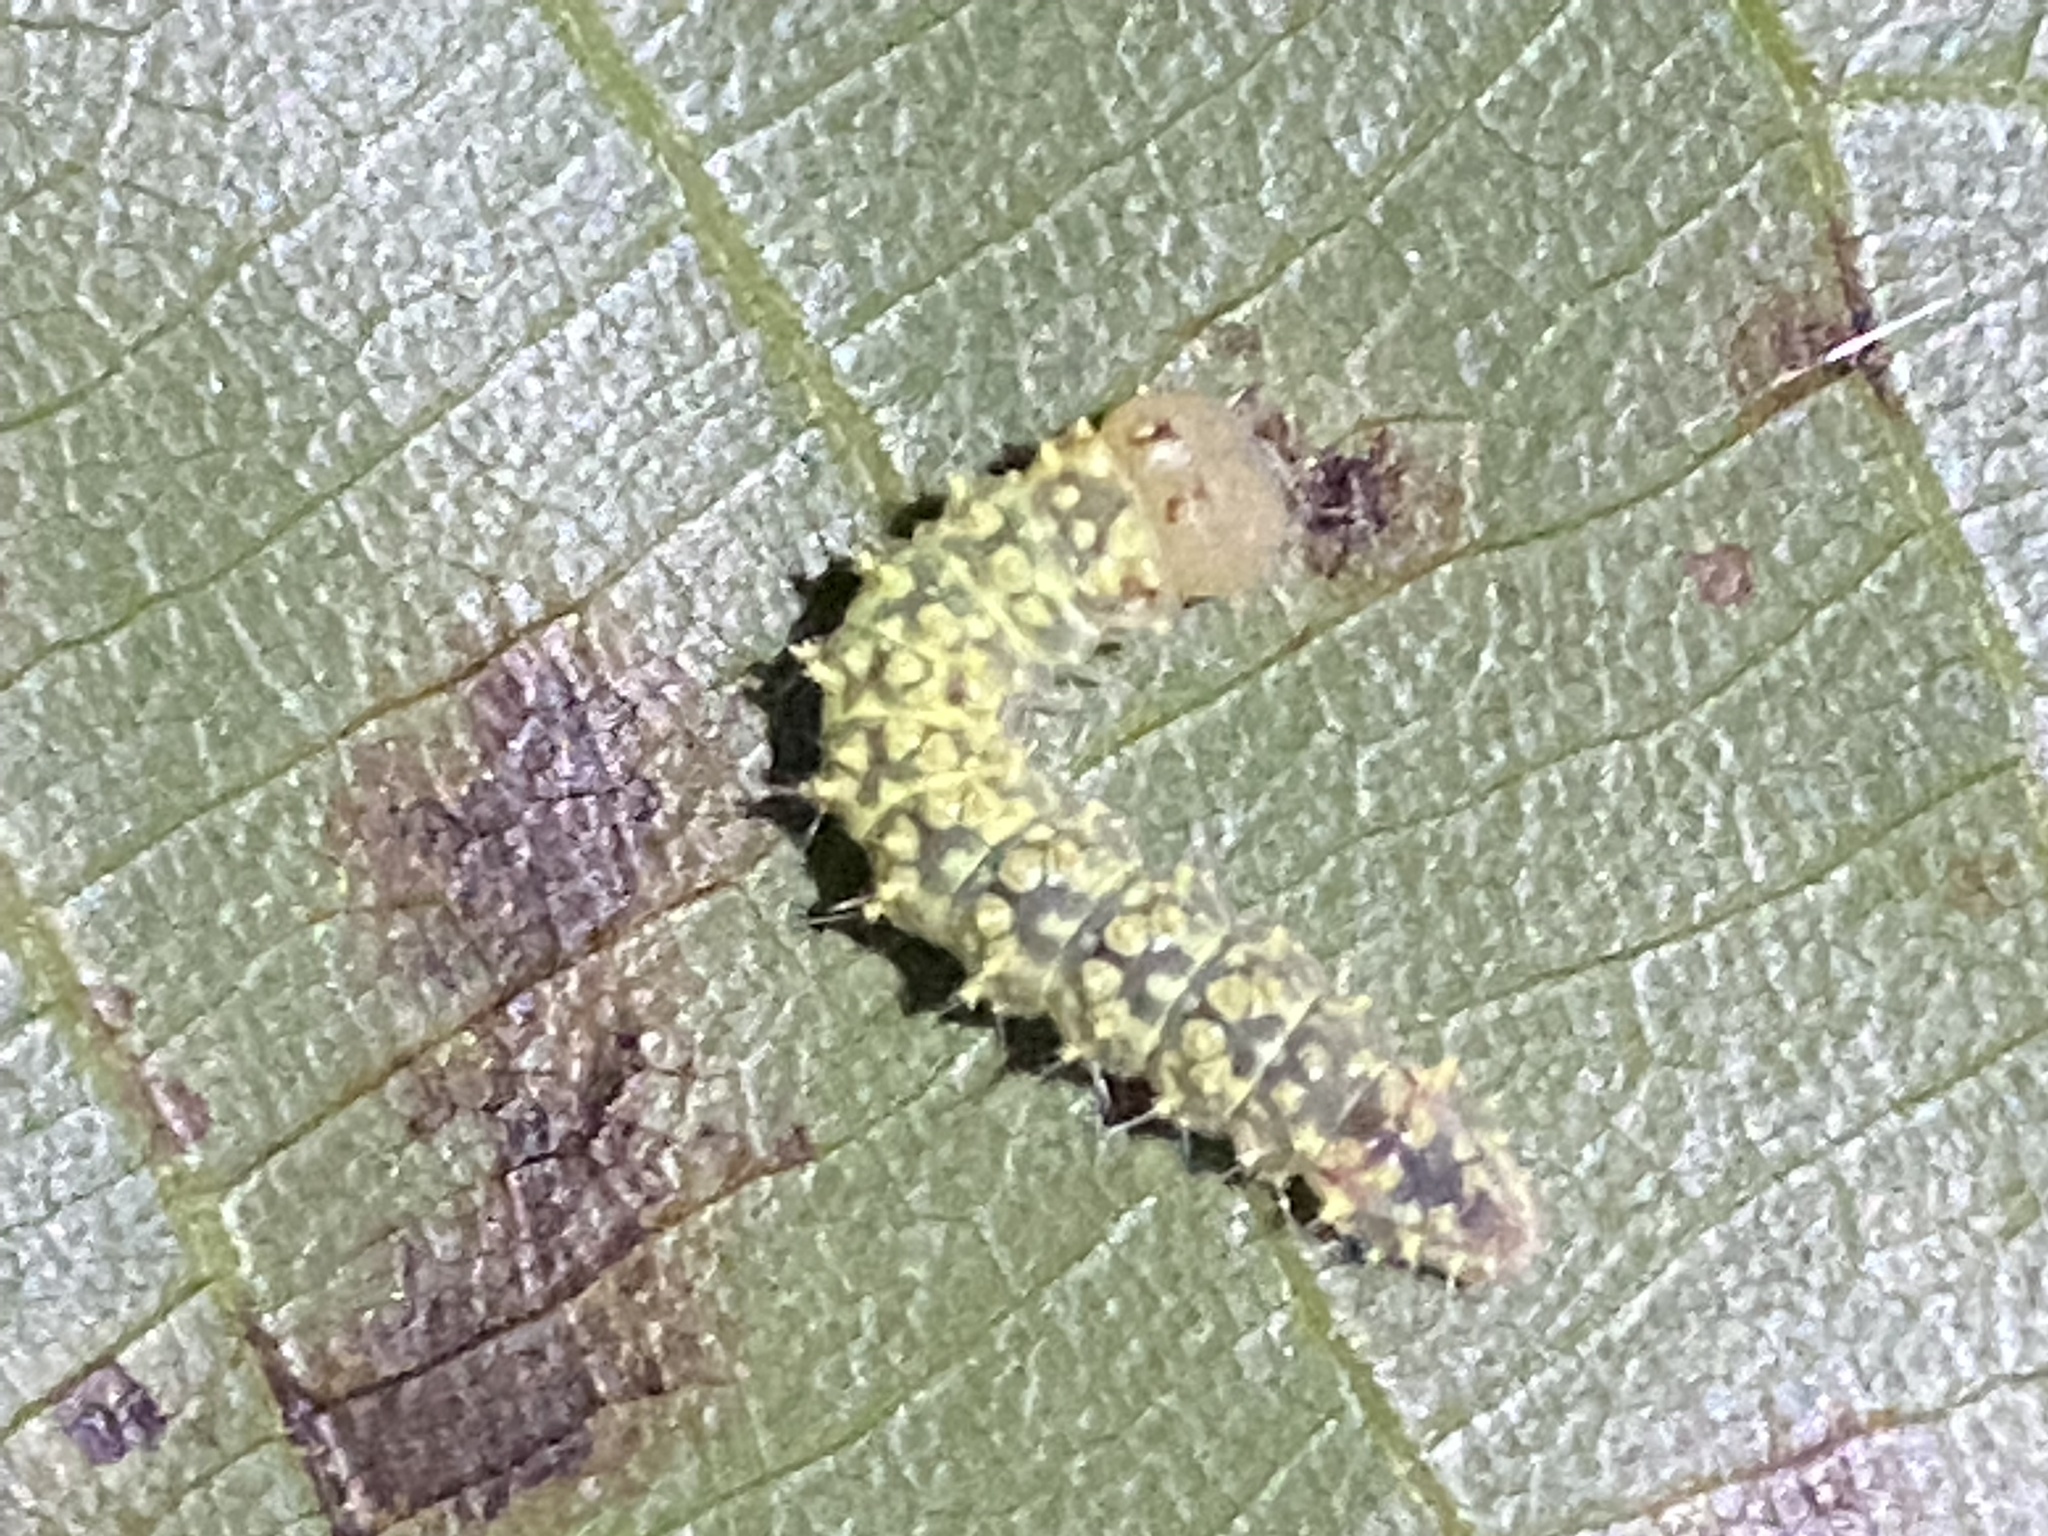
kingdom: Animalia
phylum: Arthropoda
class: Insecta
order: Lepidoptera
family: Noctuidae
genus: Acronicta
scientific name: Acronicta increta
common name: Eclipsed oak dagger
